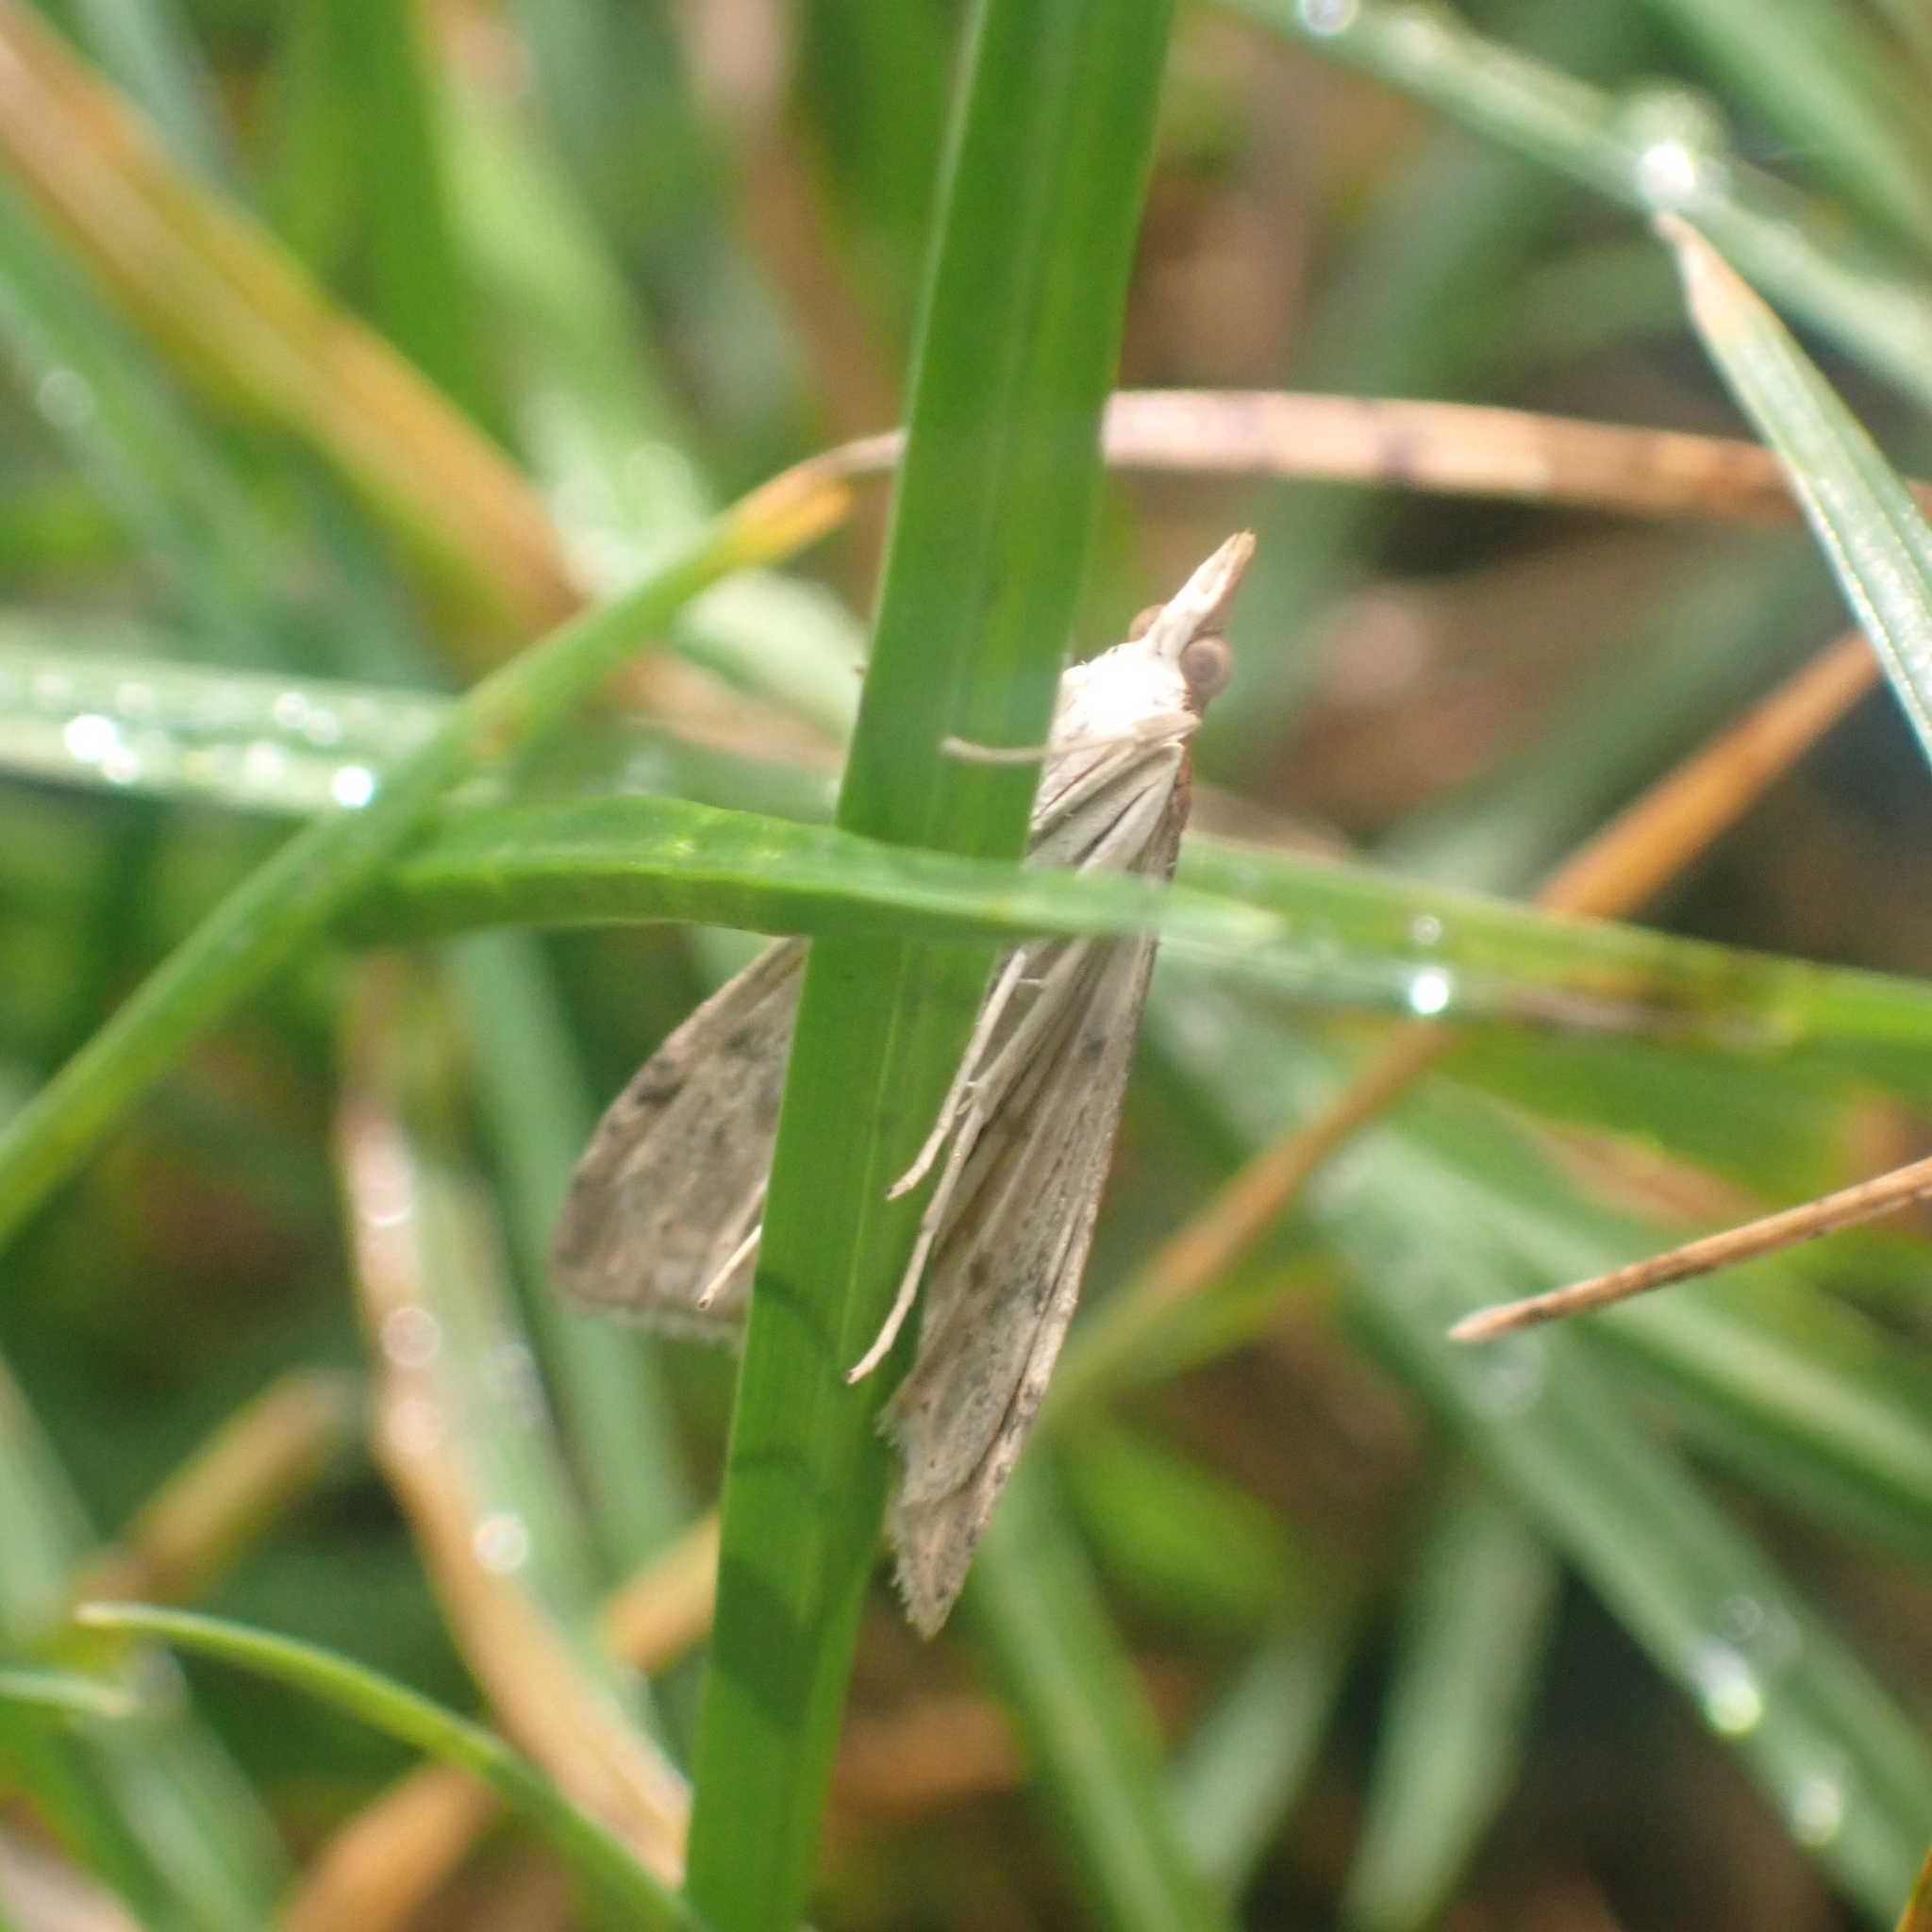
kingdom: Animalia
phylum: Arthropoda
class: Insecta
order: Lepidoptera
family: Crambidae
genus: Udea
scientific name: Udea ferrugalis
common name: Rusty dot
